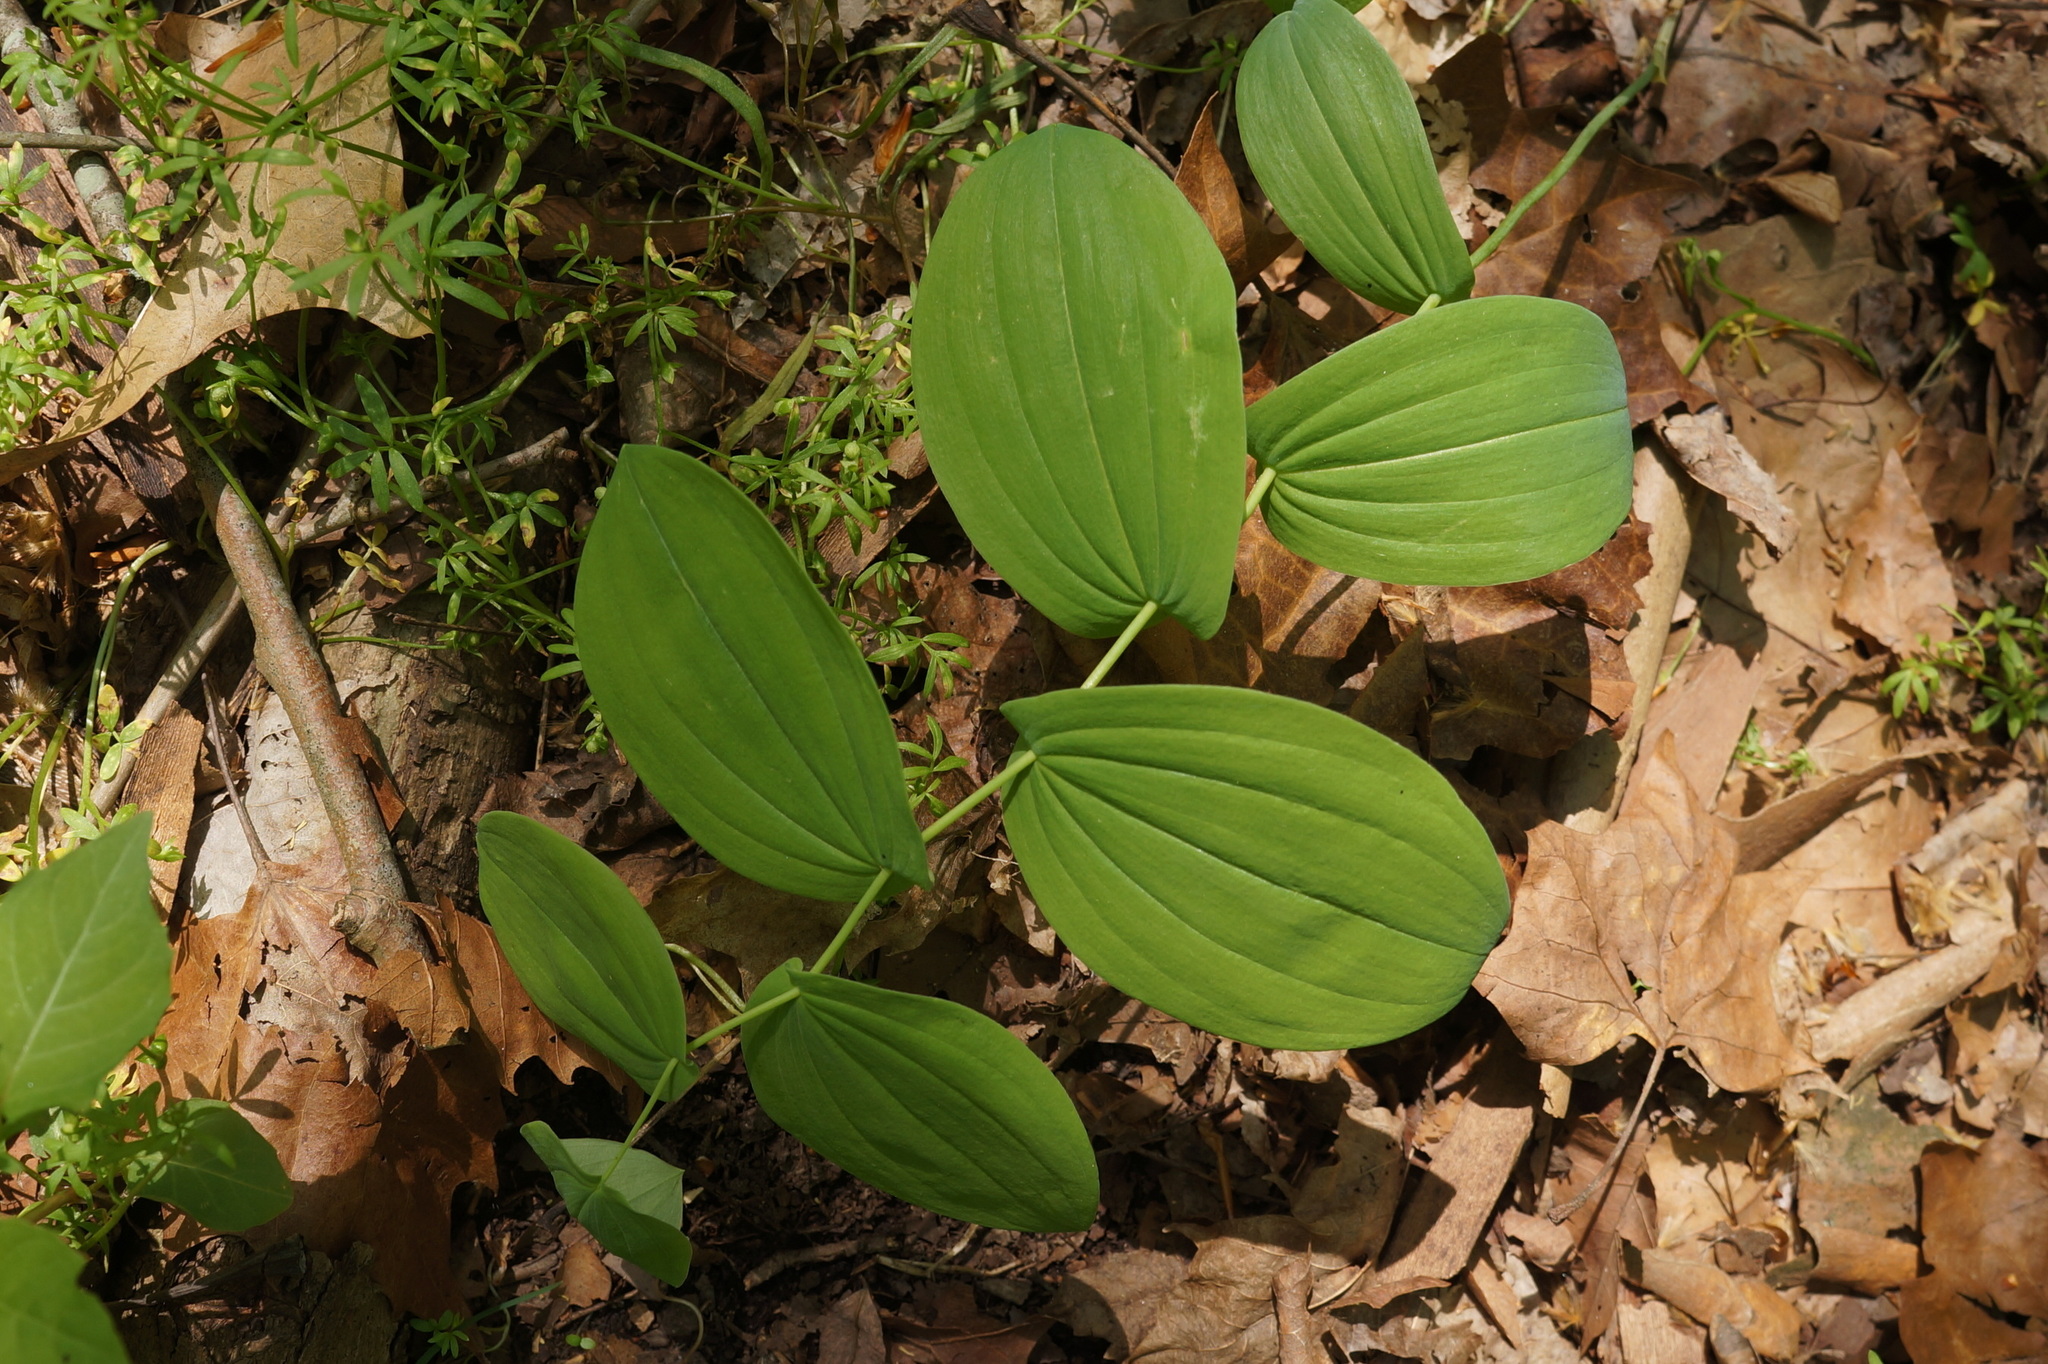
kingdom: Plantae
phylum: Tracheophyta
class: Liliopsida
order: Liliales
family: Colchicaceae
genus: Uvularia
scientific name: Uvularia grandiflora
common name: Bellwort
